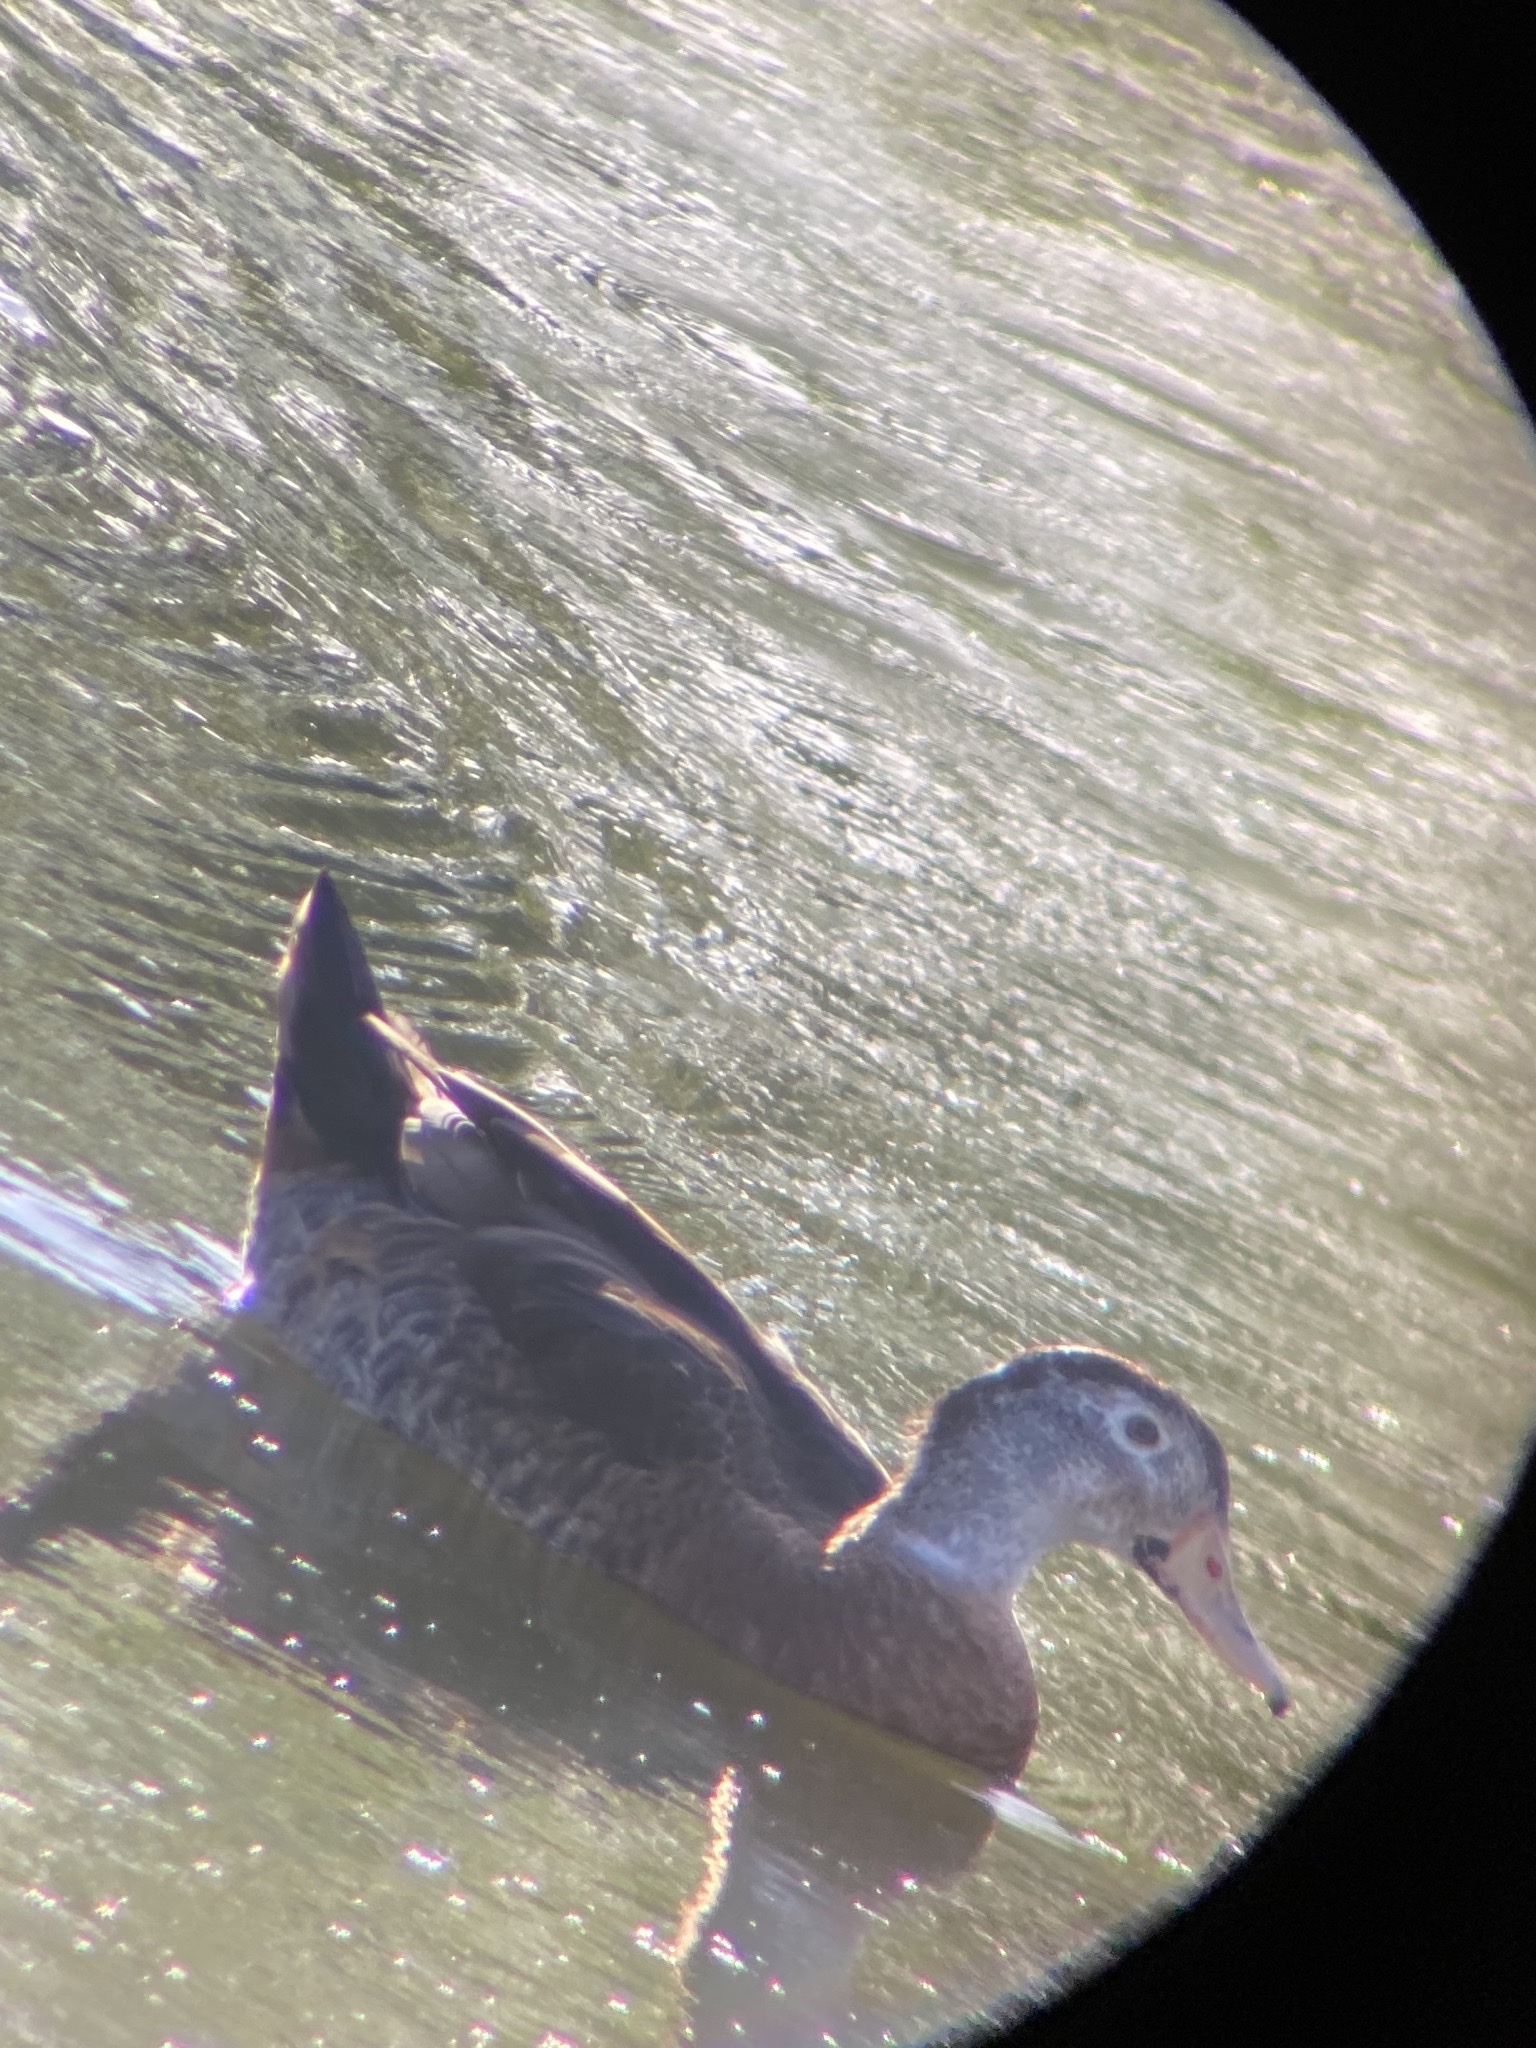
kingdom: Animalia
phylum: Chordata
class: Aves
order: Anseriformes
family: Anatidae
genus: Aix
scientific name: Aix sponsa
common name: Wood duck
